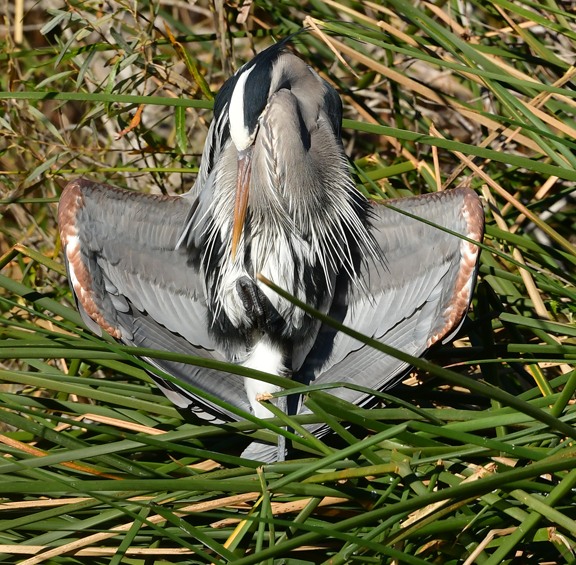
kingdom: Animalia
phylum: Chordata
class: Aves
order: Pelecaniformes
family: Ardeidae
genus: Ardea
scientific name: Ardea herodias
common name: Great blue heron
